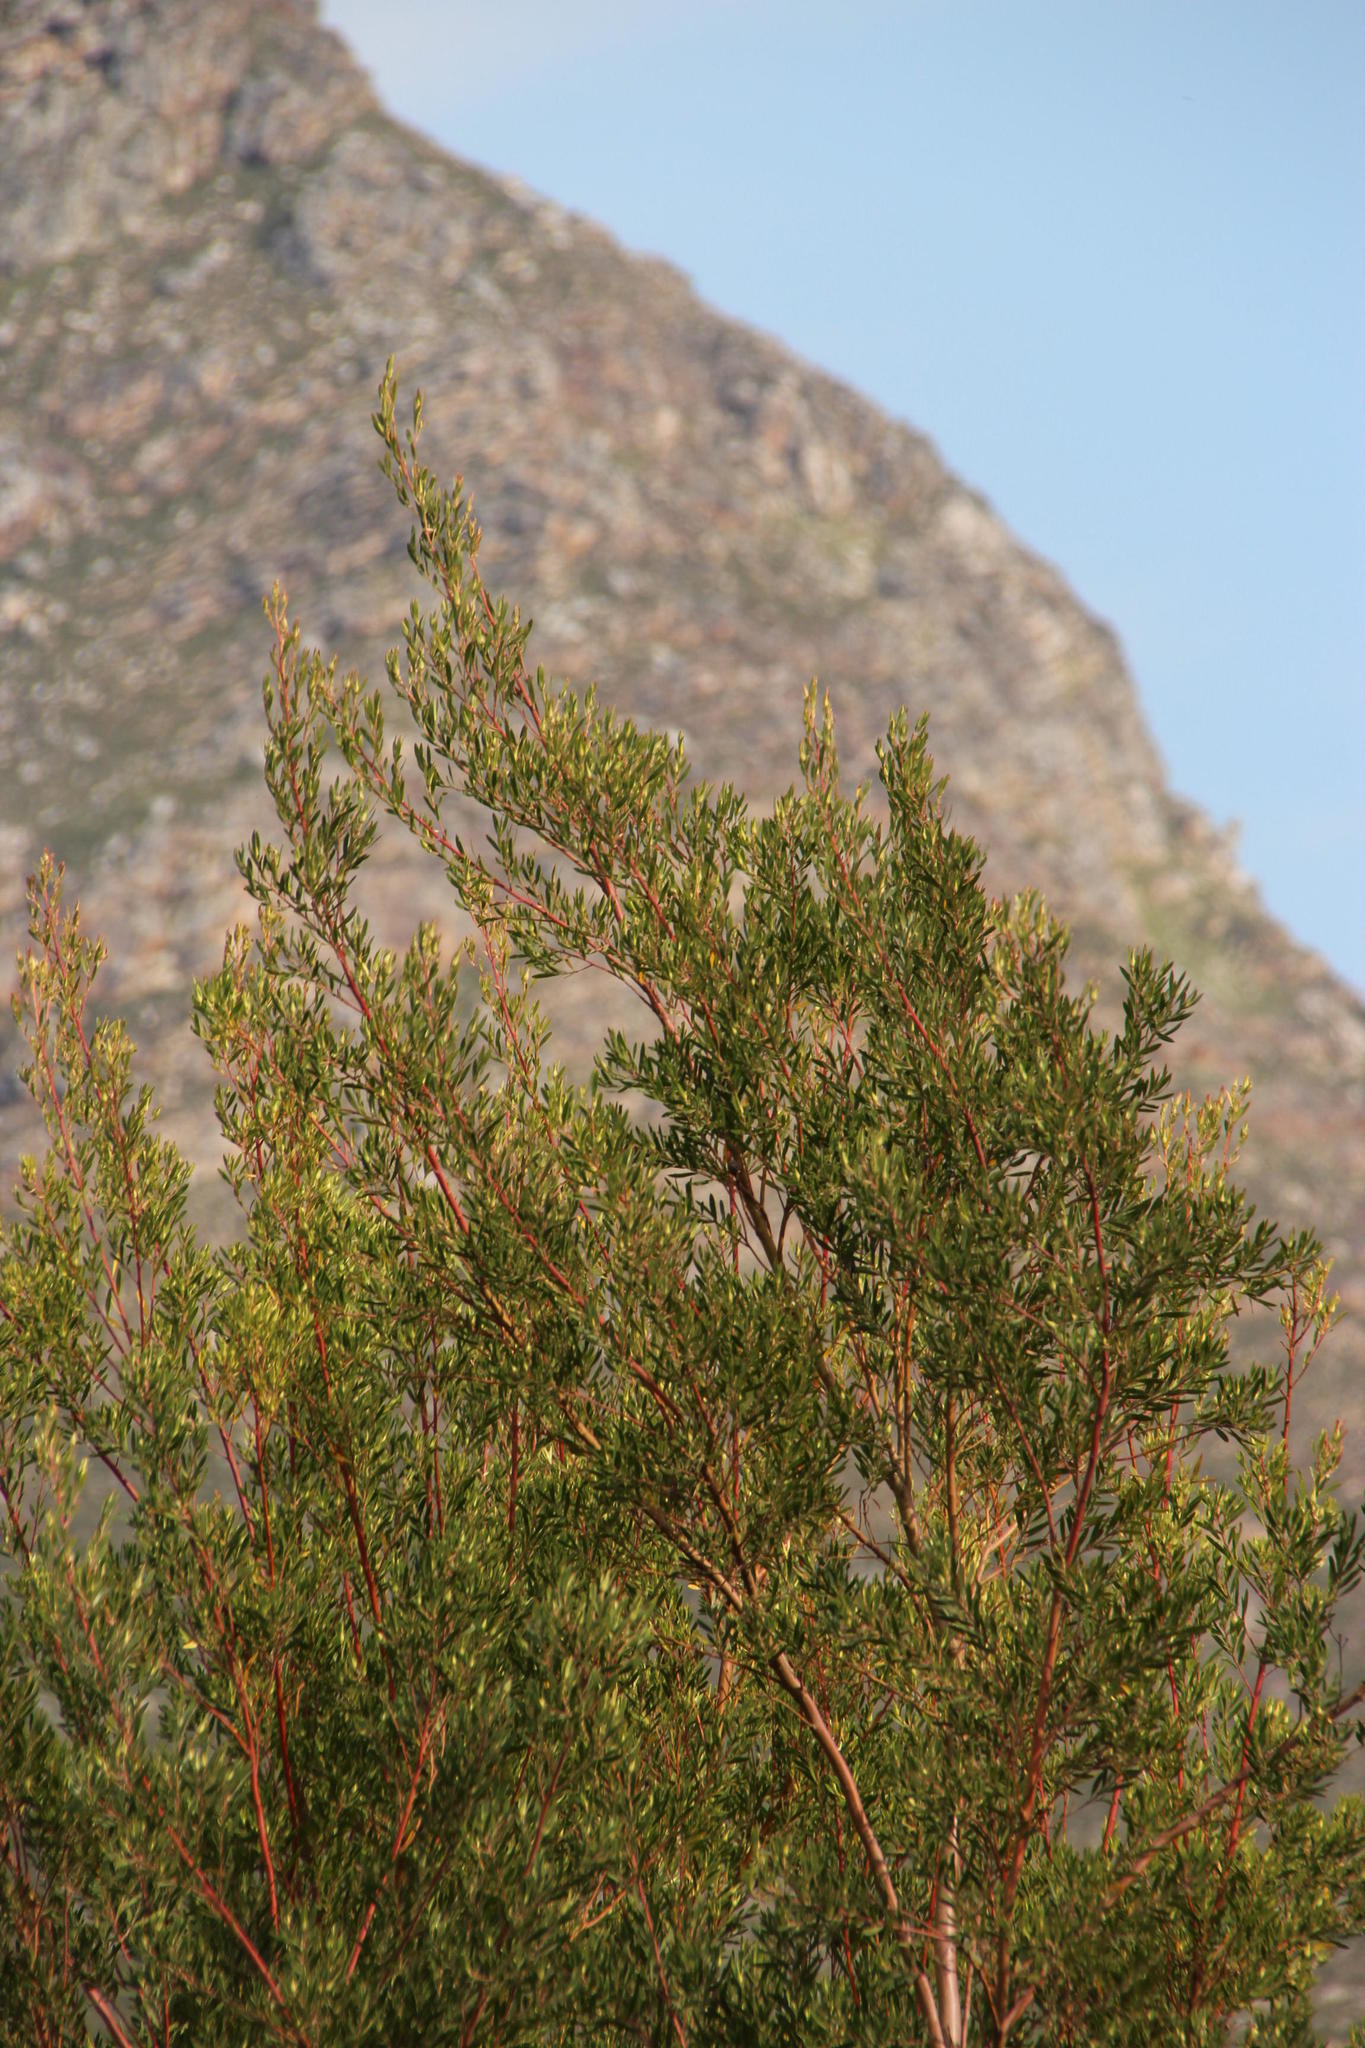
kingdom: Plantae
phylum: Tracheophyta
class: Magnoliopsida
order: Proteales
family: Proteaceae
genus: Leucadendron
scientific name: Leucadendron salicifolium
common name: Common stream conebush
